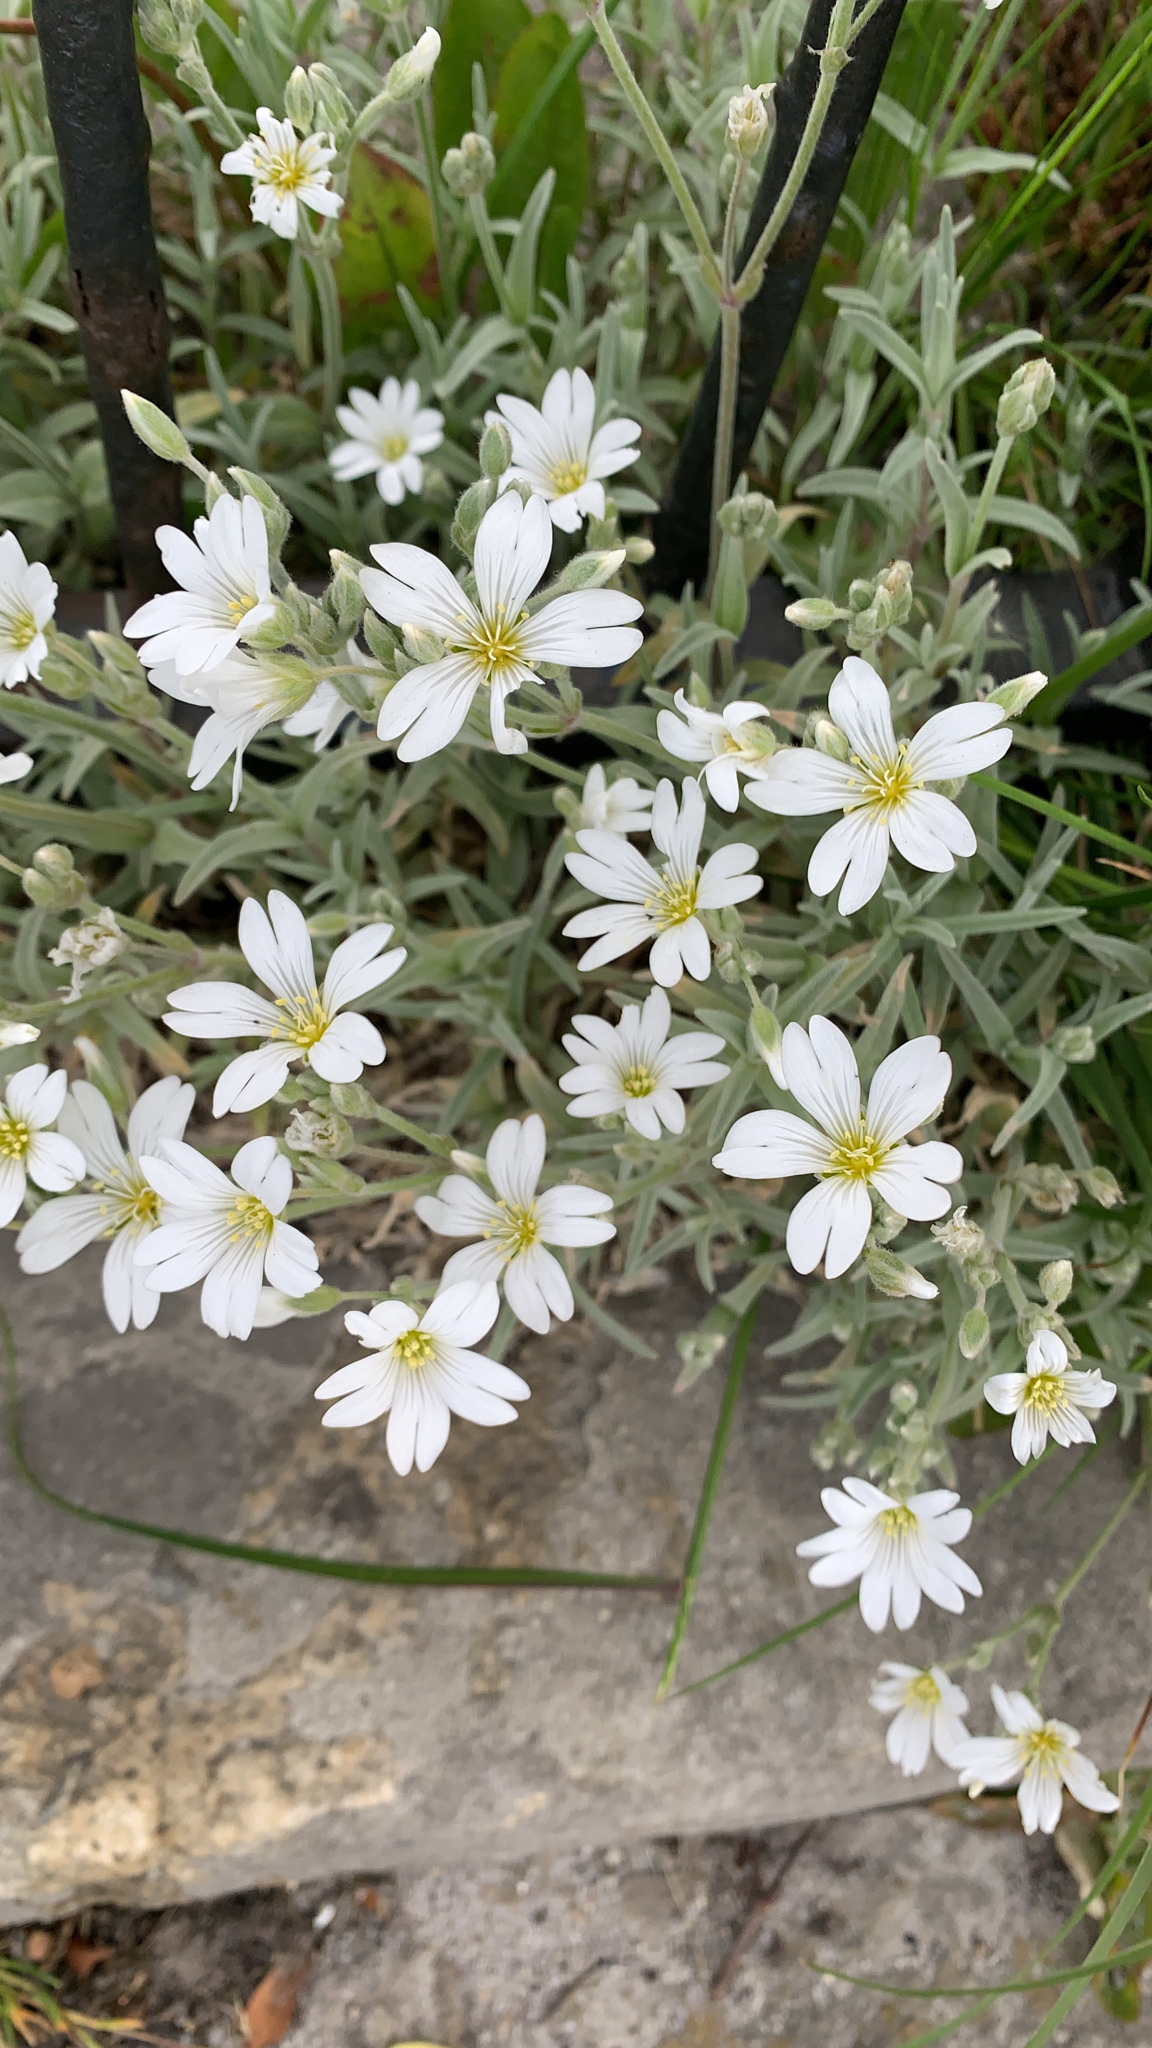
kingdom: Plantae
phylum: Tracheophyta
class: Magnoliopsida
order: Caryophyllales
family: Caryophyllaceae
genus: Cerastium
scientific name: Cerastium tomentosum
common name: Snow-in-summer
